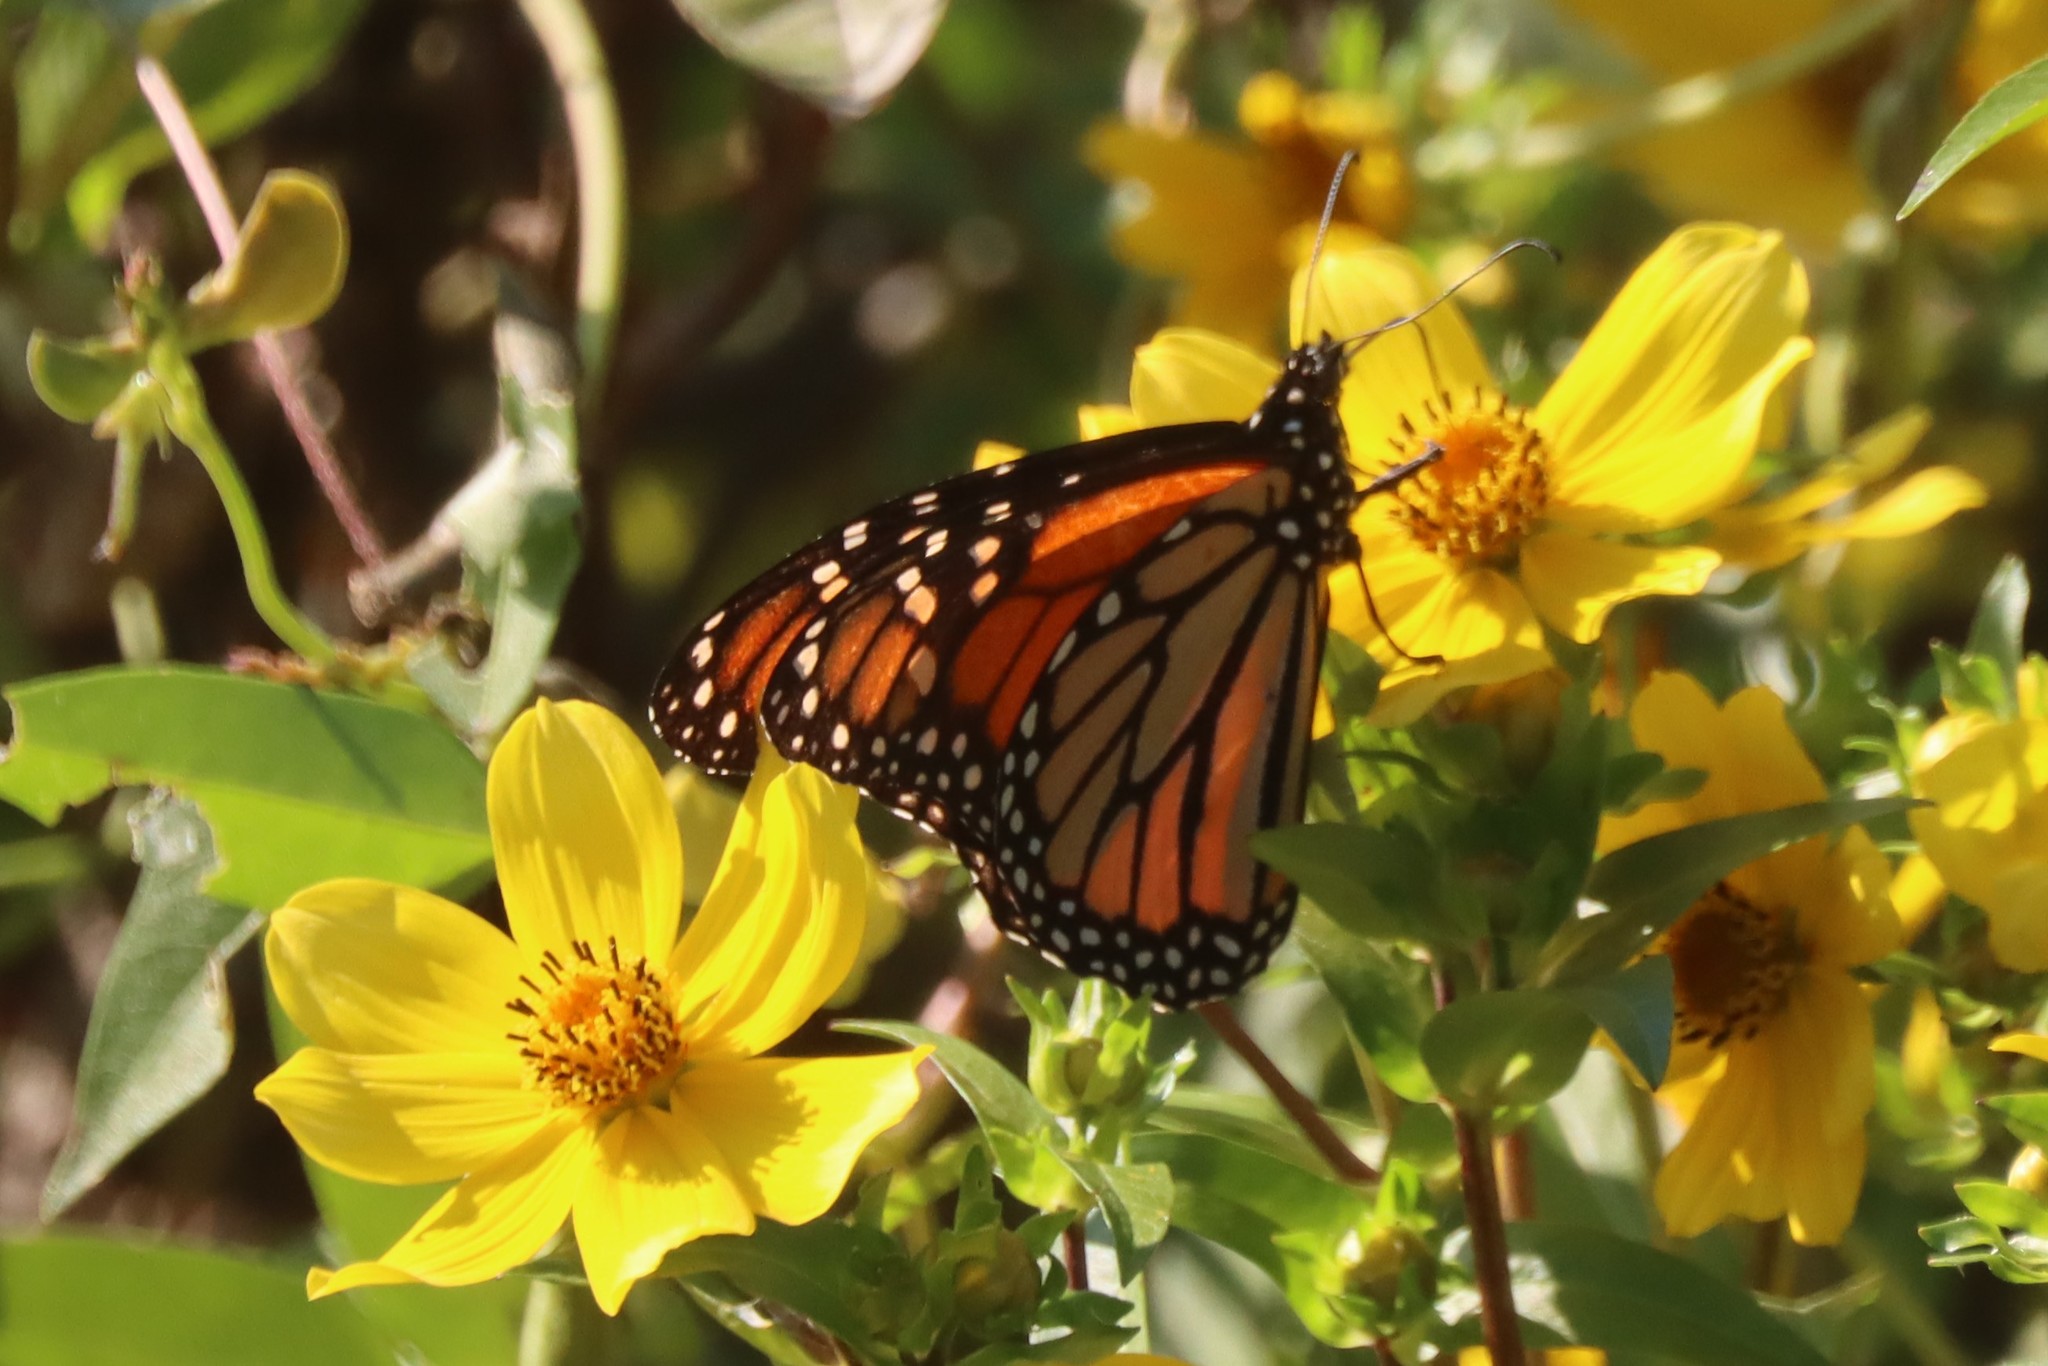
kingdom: Animalia
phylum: Arthropoda
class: Insecta
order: Lepidoptera
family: Nymphalidae
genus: Danaus
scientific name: Danaus plexippus
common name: Monarch
